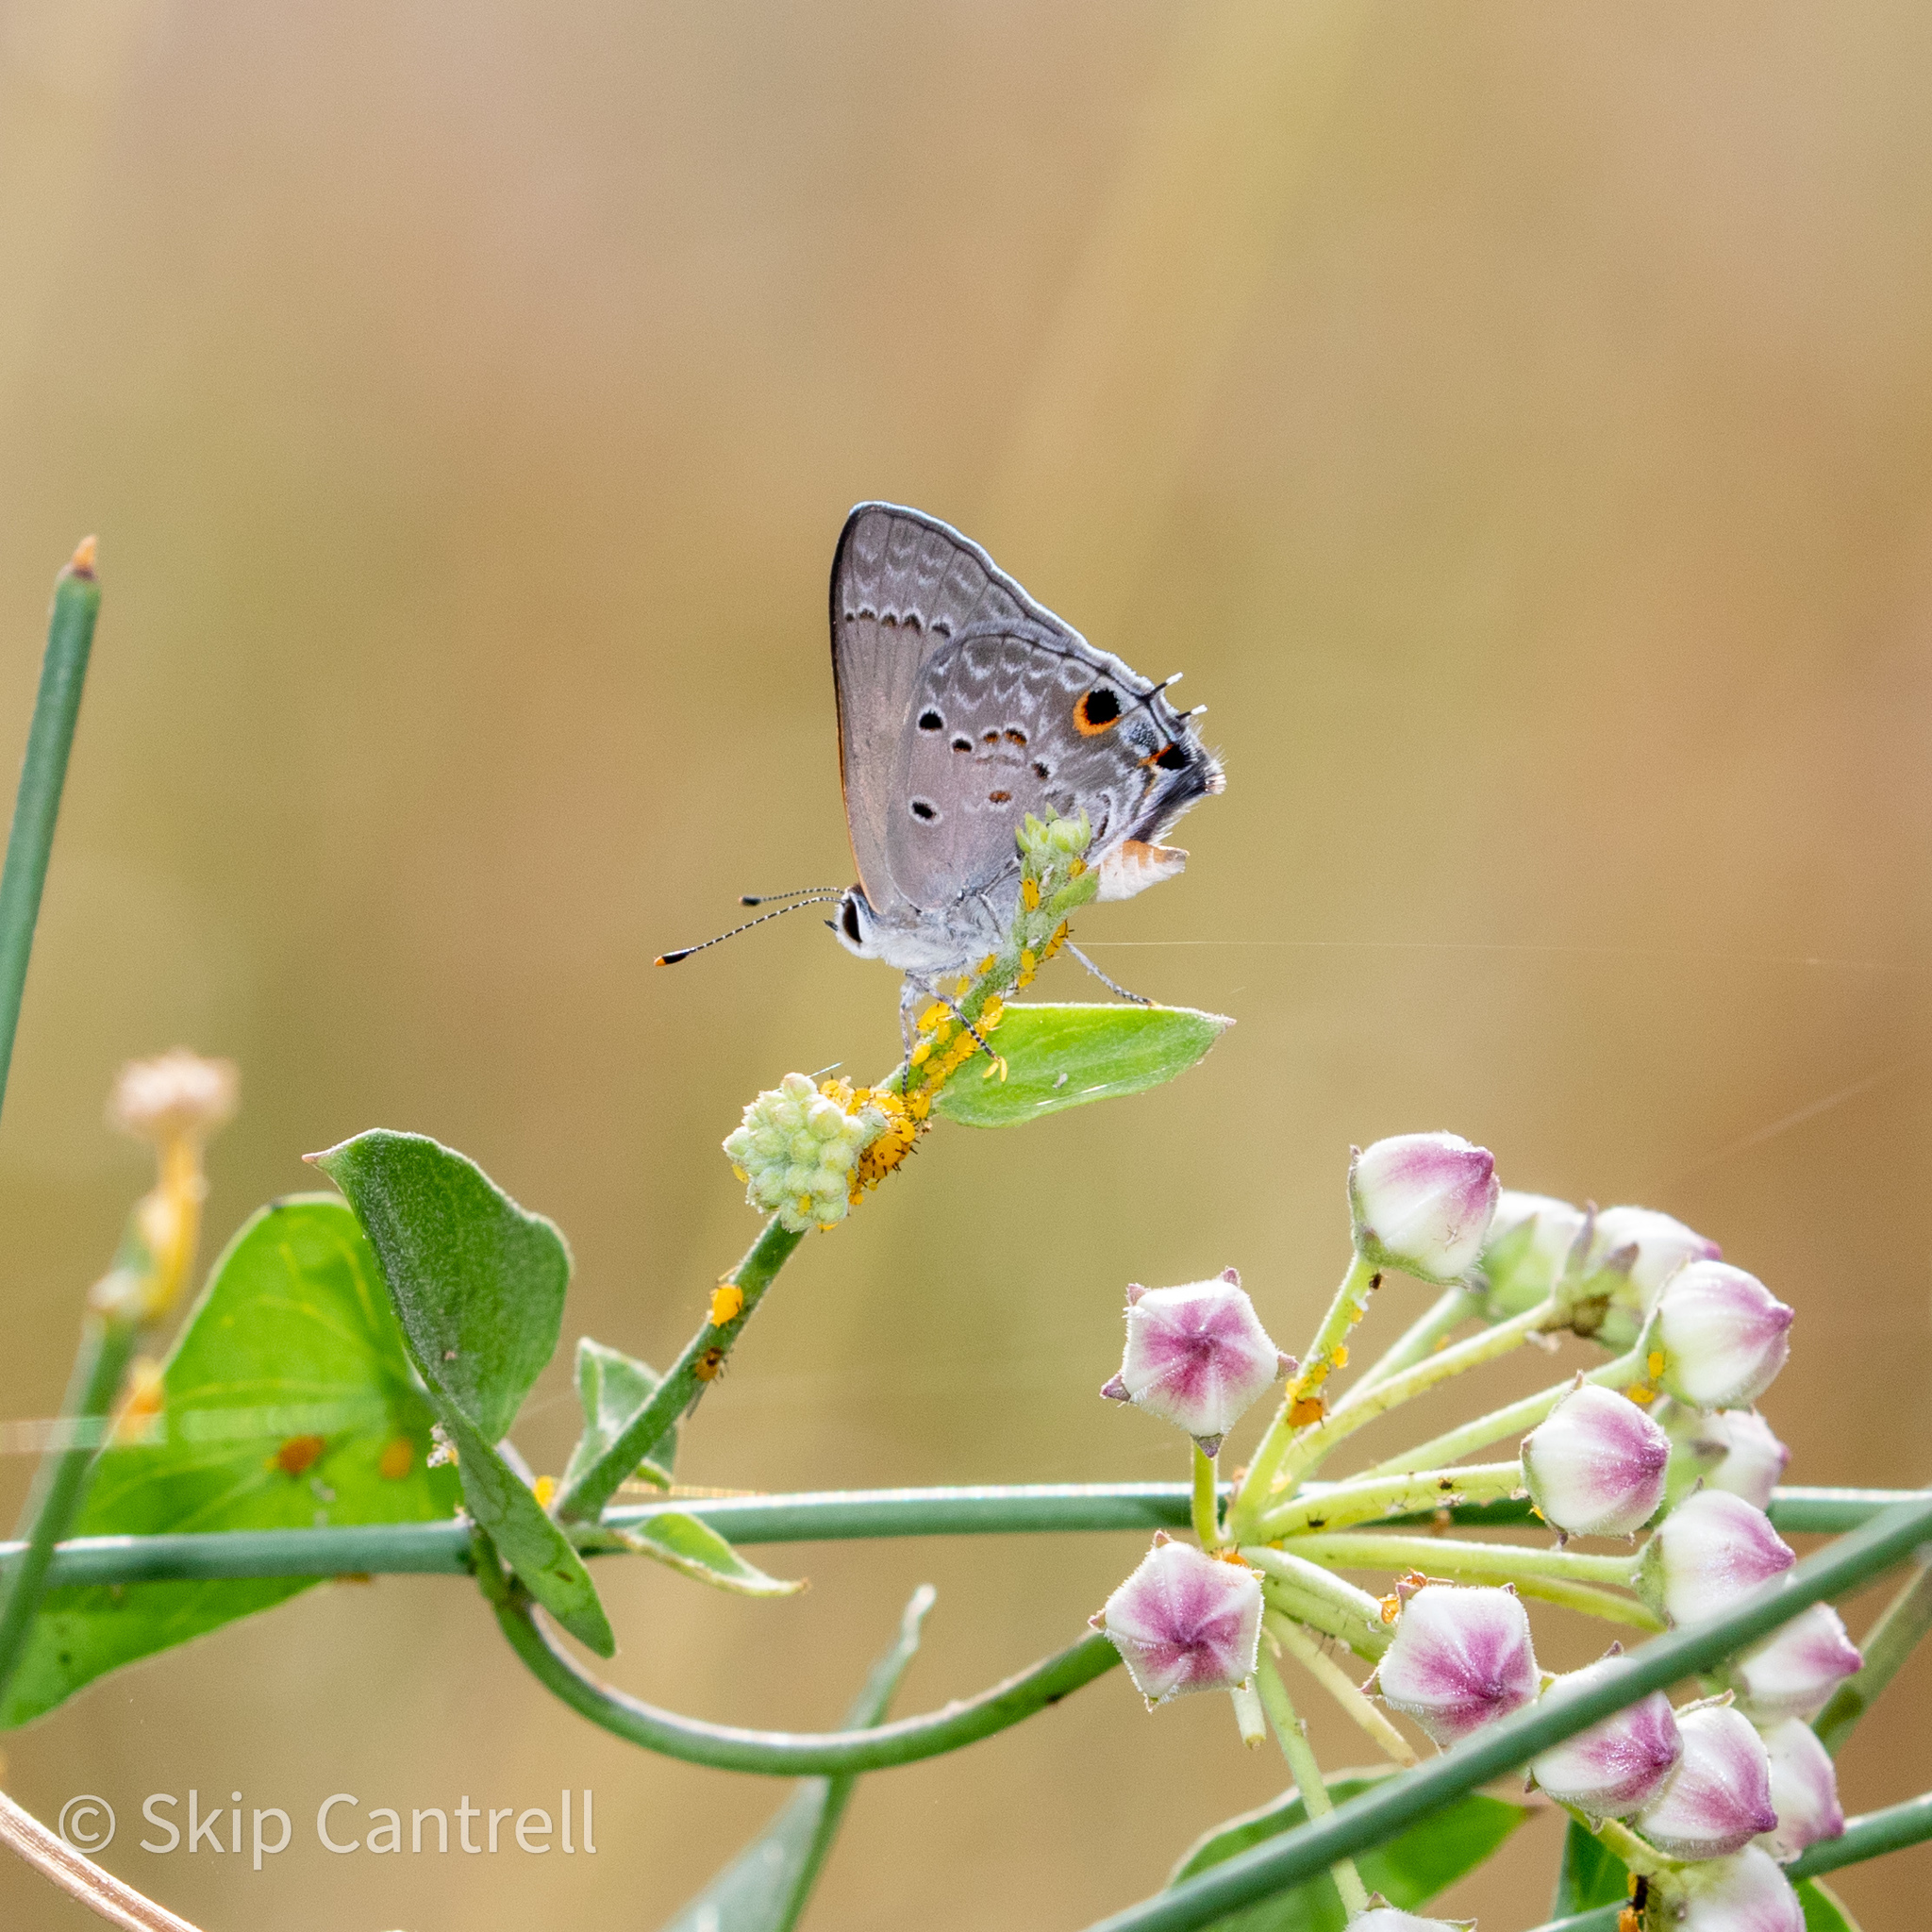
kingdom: Animalia
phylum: Arthropoda
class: Insecta
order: Lepidoptera
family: Lycaenidae
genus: Callicista
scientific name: Callicista columella
